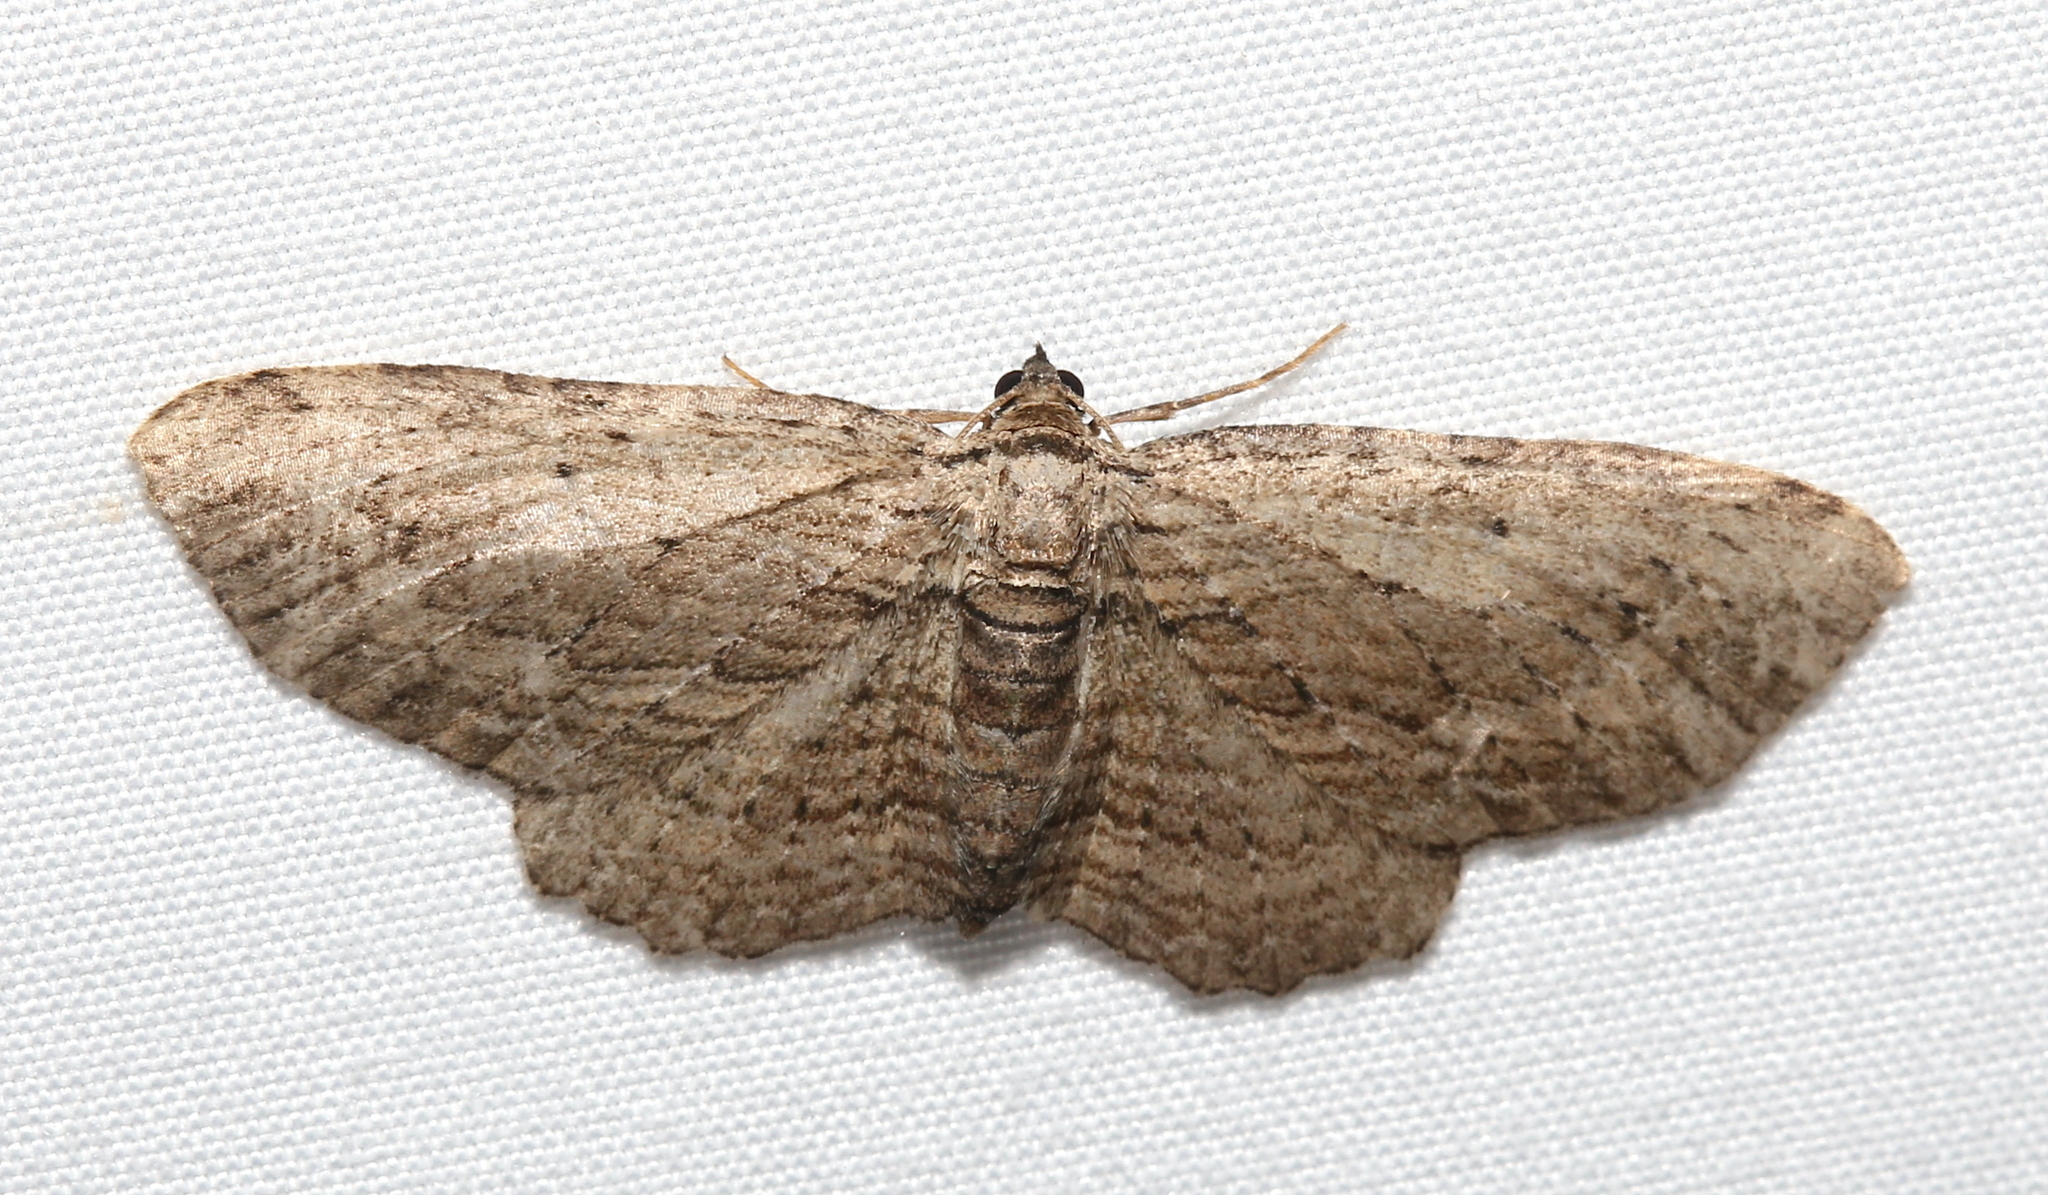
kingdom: Animalia
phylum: Arthropoda
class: Insecta
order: Lepidoptera
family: Geometridae
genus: Horisme
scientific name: Horisme intestinata
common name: Brown bark carpet
